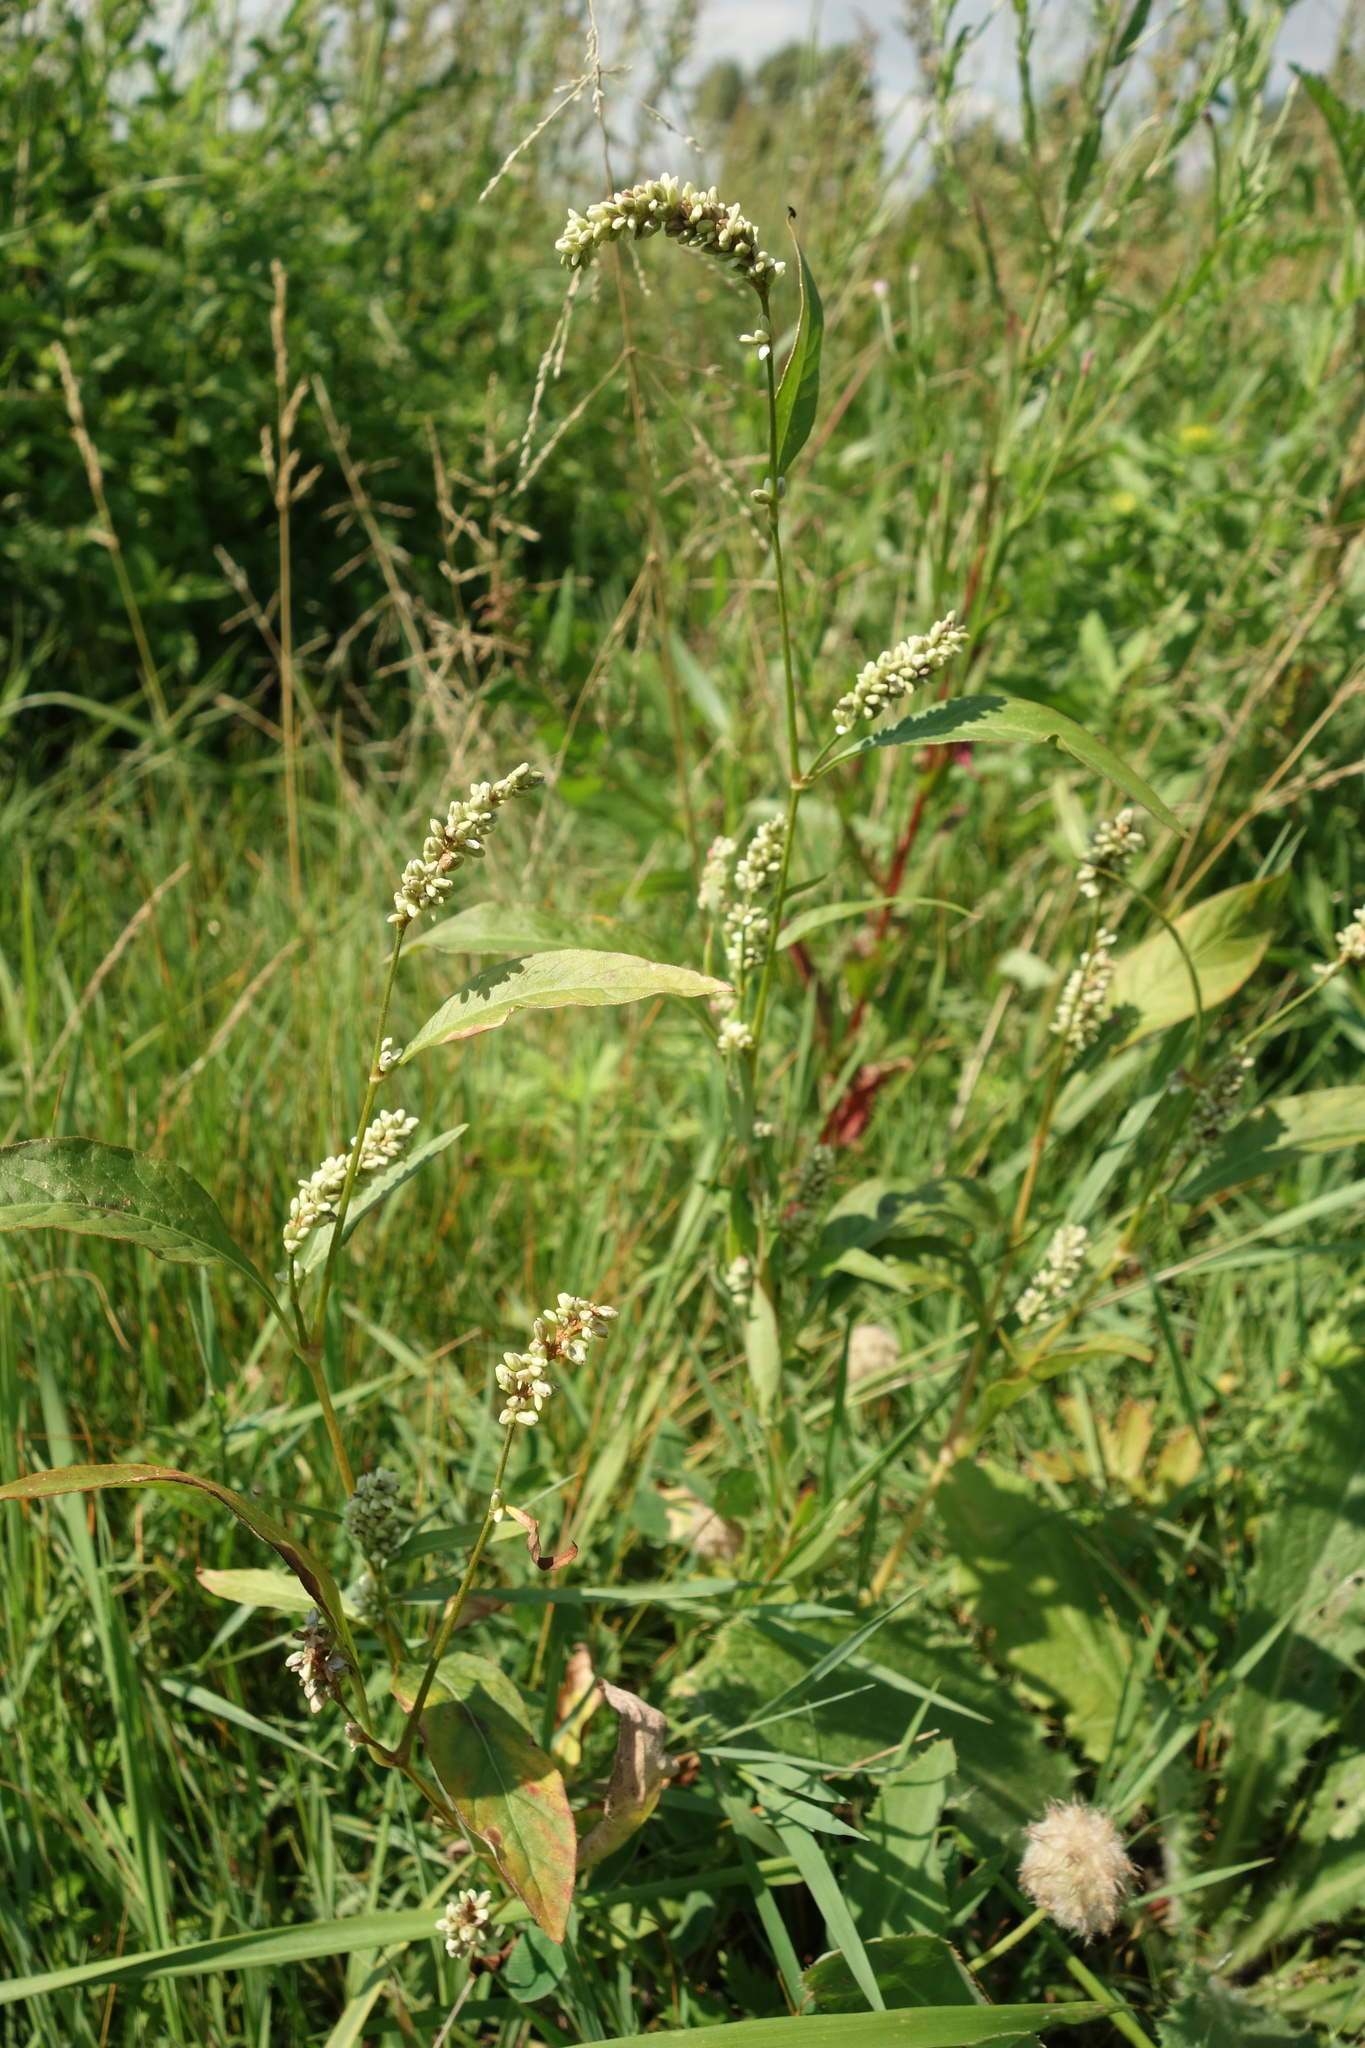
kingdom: Plantae
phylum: Tracheophyta
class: Magnoliopsida
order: Caryophyllales
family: Polygonaceae
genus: Persicaria
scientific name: Persicaria lapathifolia
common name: Curlytop knotweed
